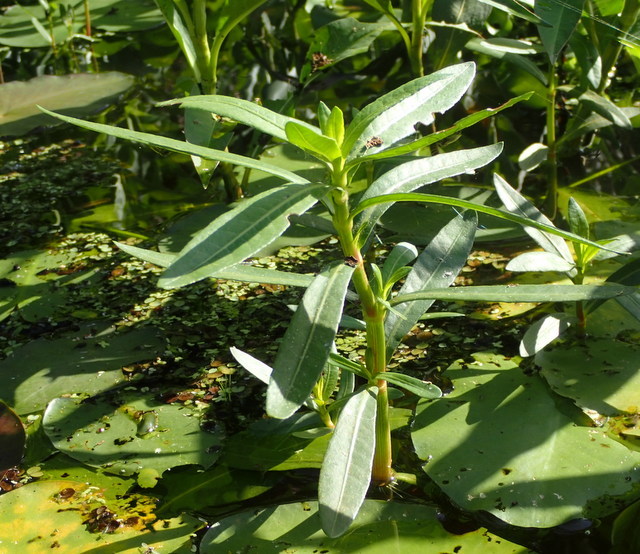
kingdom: Plantae
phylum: Tracheophyta
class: Magnoliopsida
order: Caryophyllales
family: Amaranthaceae
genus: Alternanthera
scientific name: Alternanthera philoxeroides
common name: Alligatorweed
